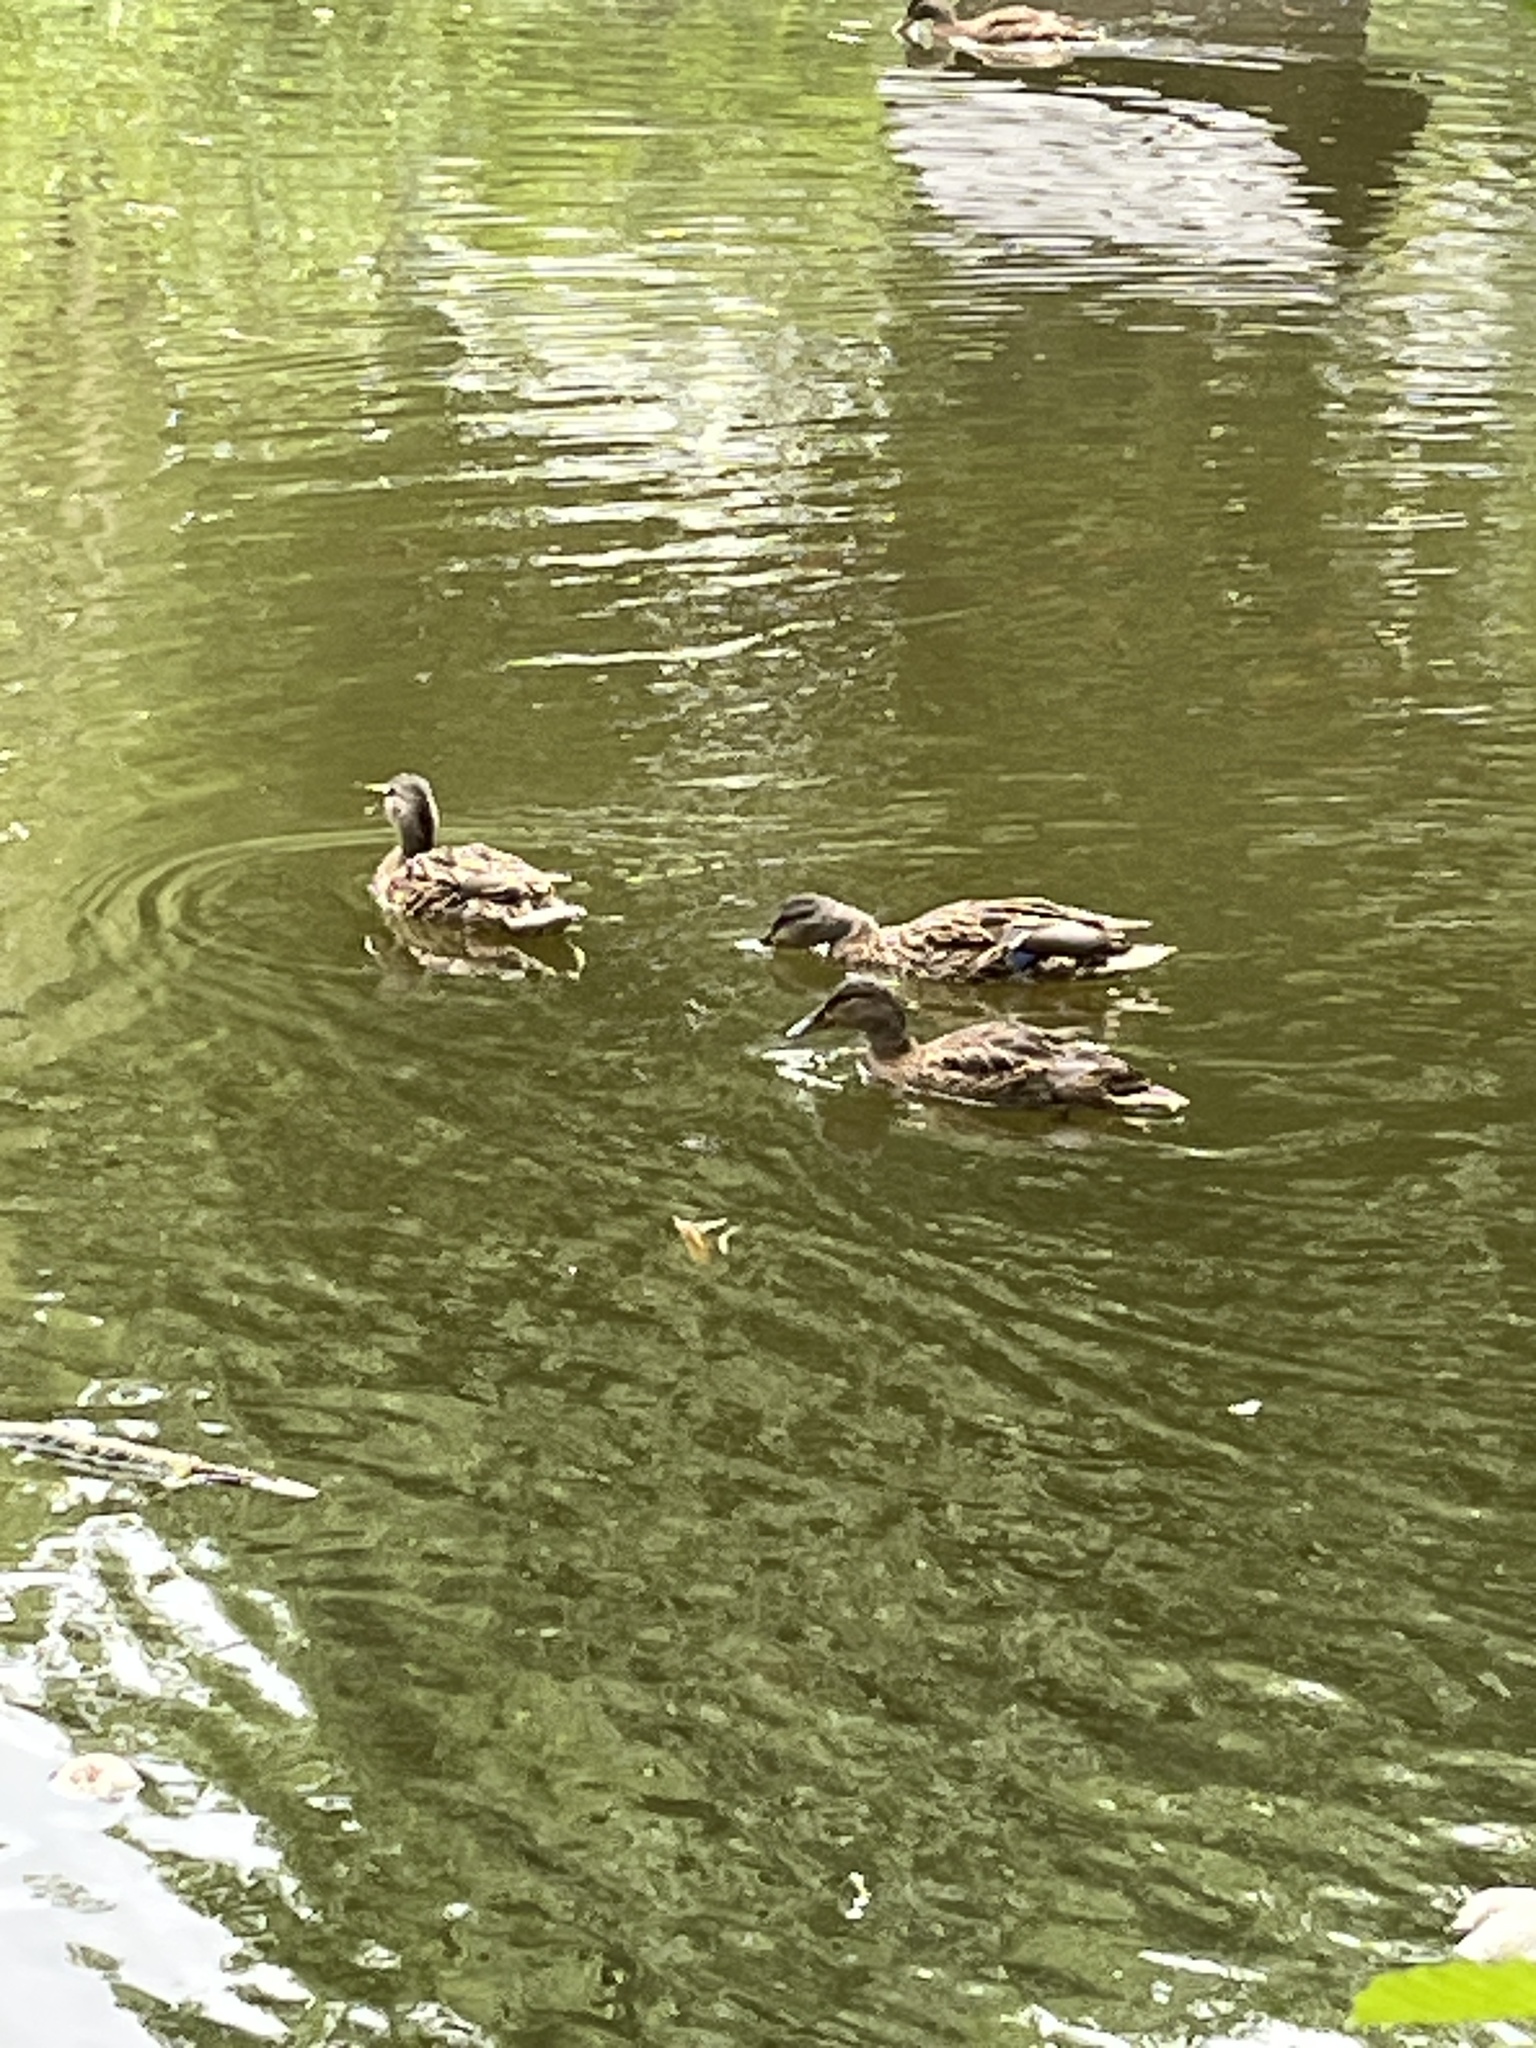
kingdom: Animalia
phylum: Chordata
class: Aves
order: Anseriformes
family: Anatidae
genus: Anas
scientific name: Anas platyrhynchos
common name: Mallard
